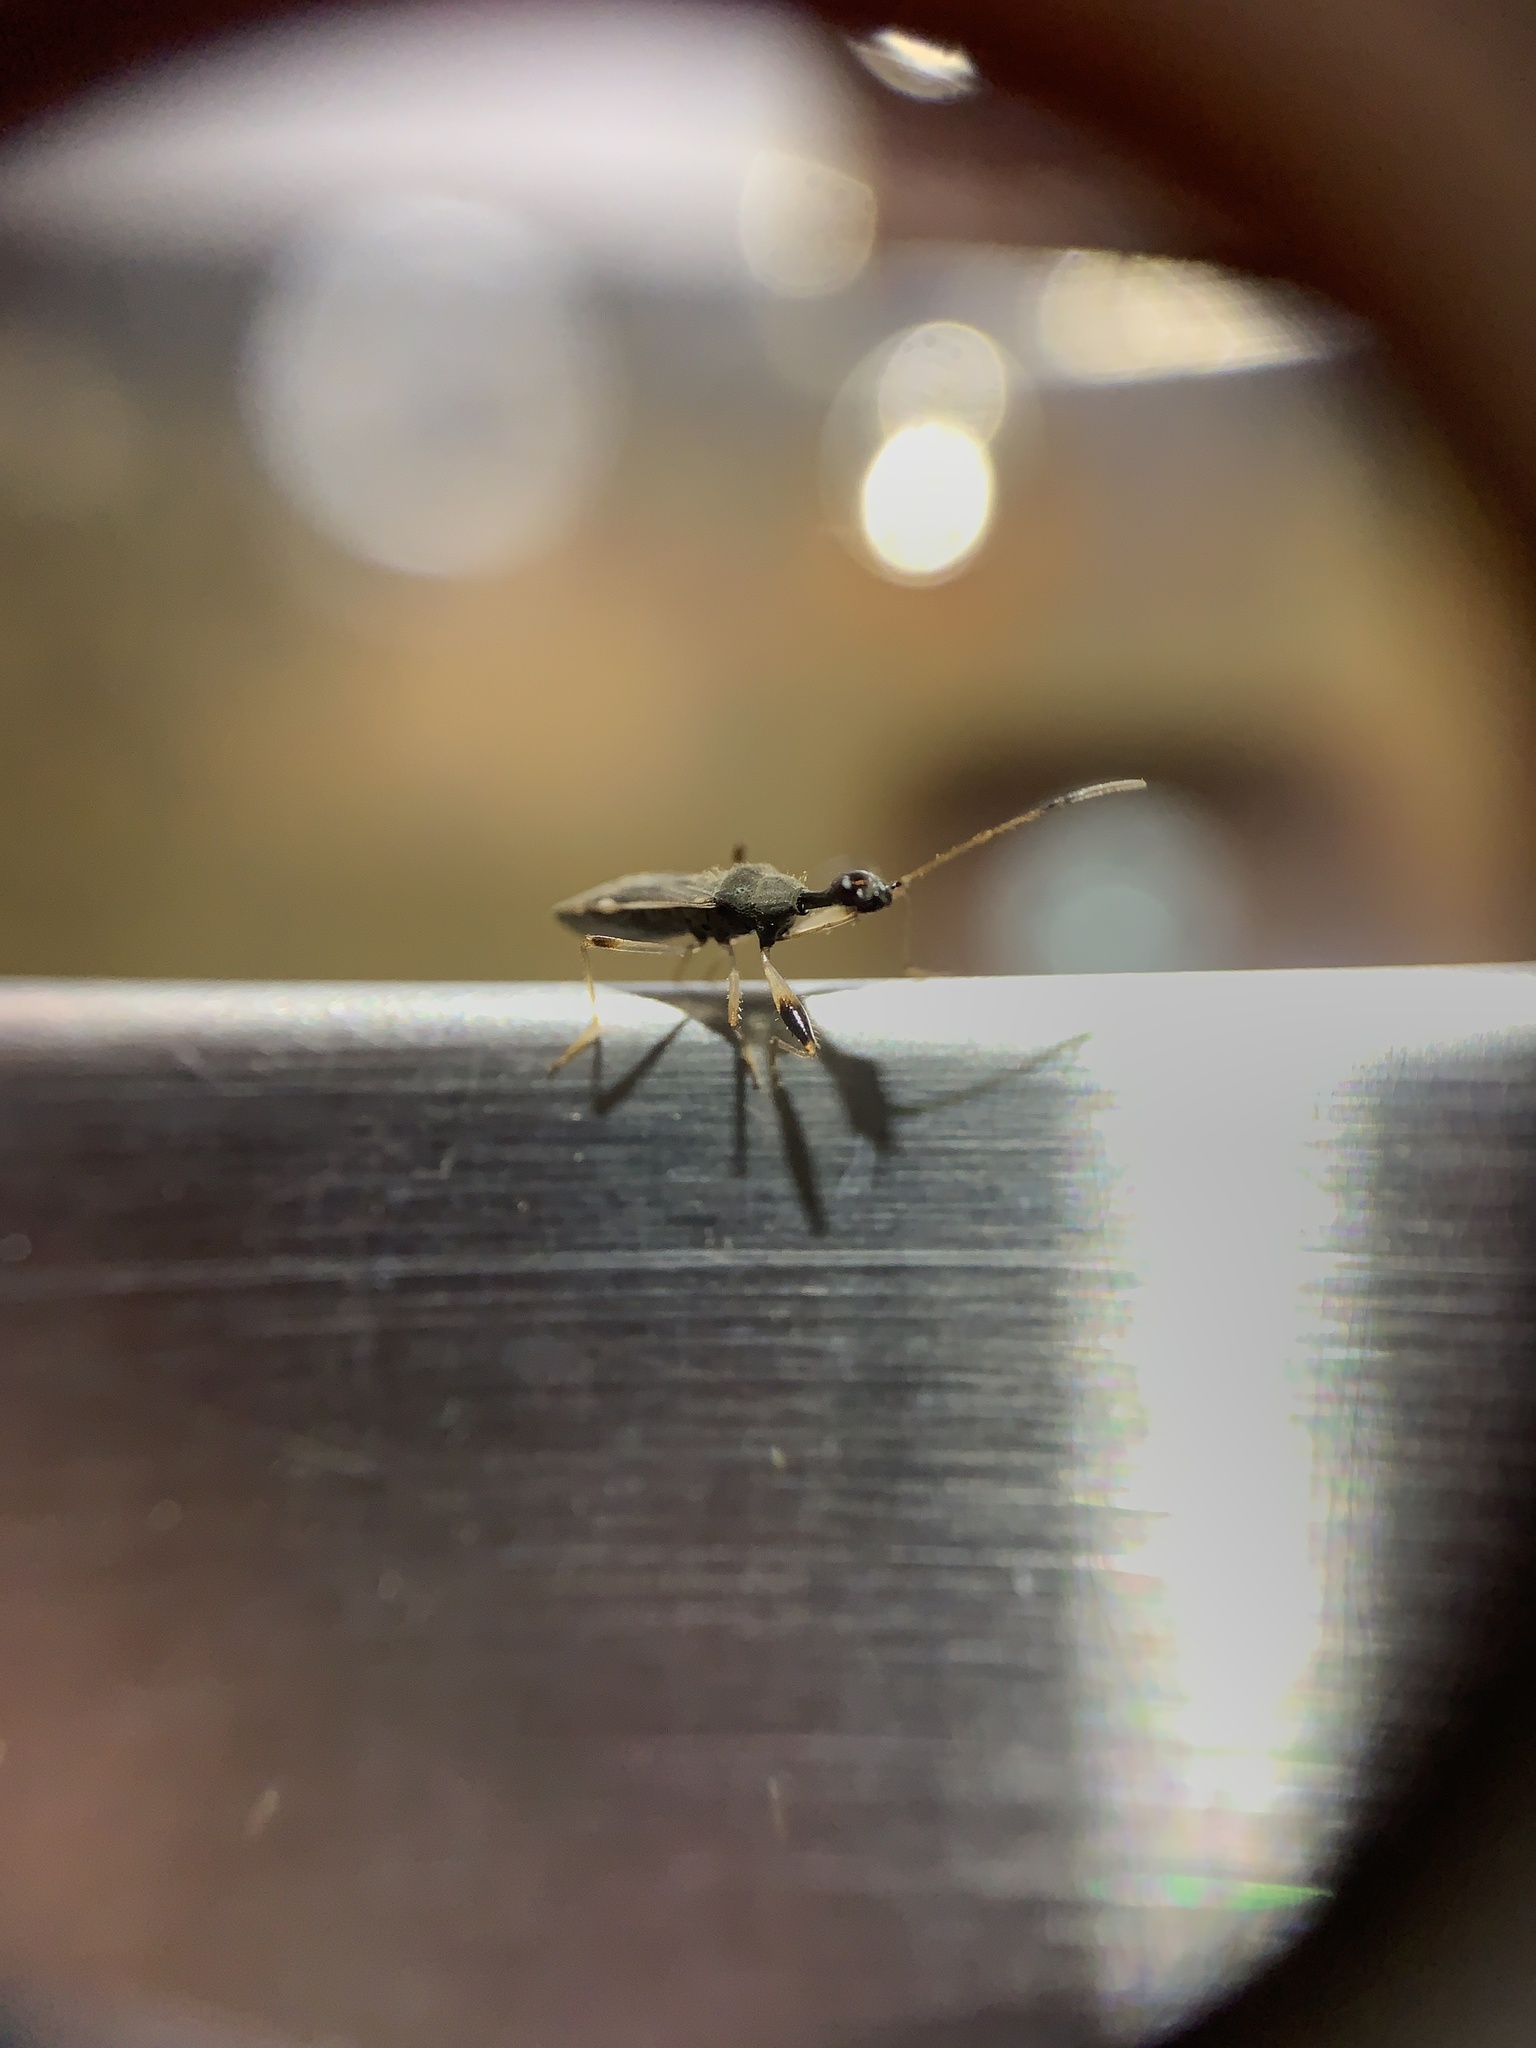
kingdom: Animalia
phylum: Arthropoda
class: Insecta
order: Hemiptera
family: Rhyparochromidae
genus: Myodocha
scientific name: Myodocha serripes
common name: Long-necked seed bug
